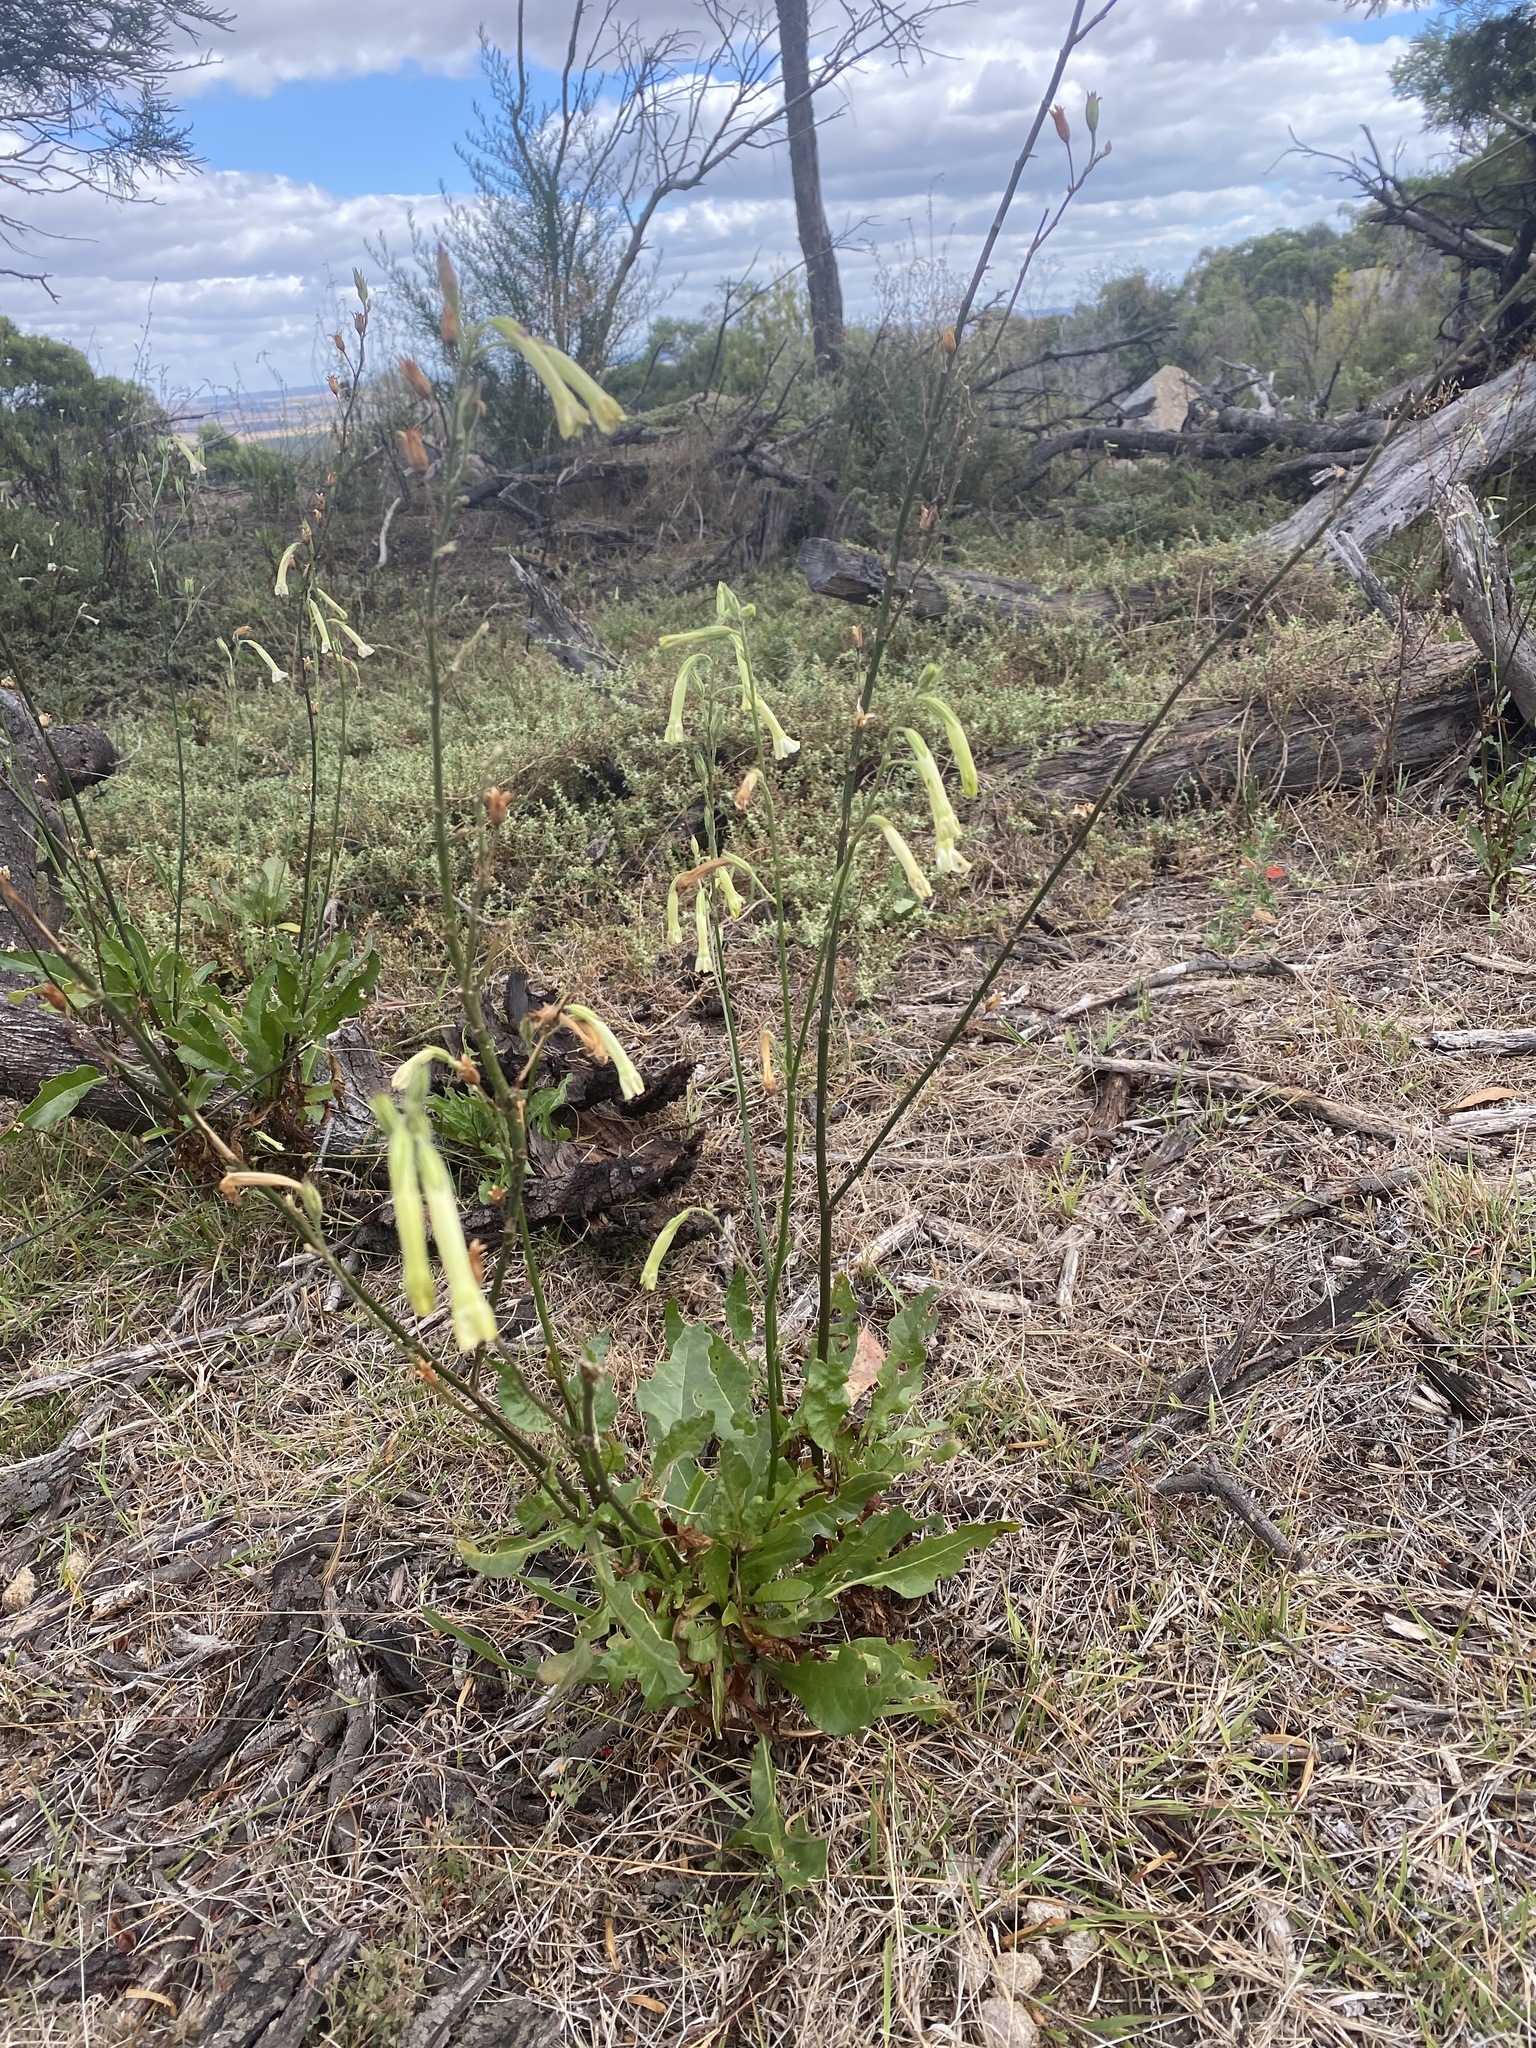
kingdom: Plantae
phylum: Tracheophyta
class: Magnoliopsida
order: Solanales
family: Solanaceae
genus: Nicotiana
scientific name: Nicotiana suaveolens
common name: Australian tobacco
